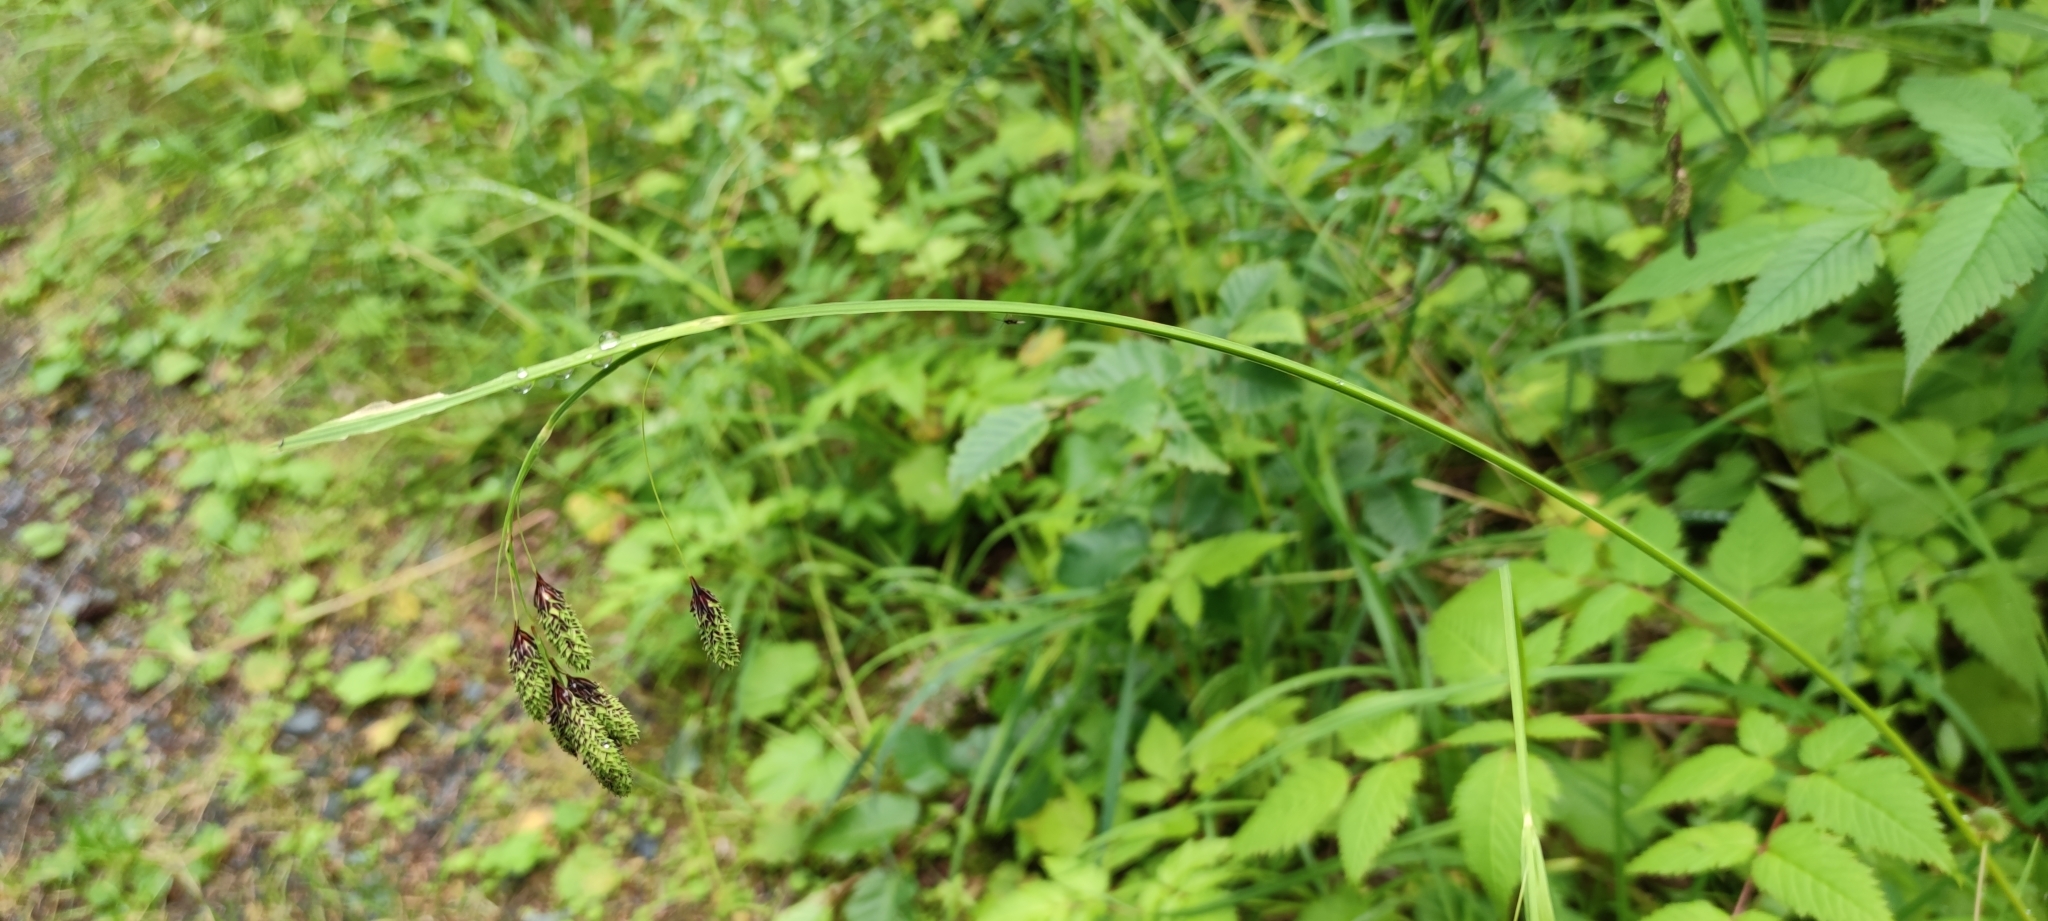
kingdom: Plantae
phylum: Tracheophyta
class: Liliopsida
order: Poales
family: Cyperaceae
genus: Carex
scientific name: Carex mertensii
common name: Mertens' sedge
